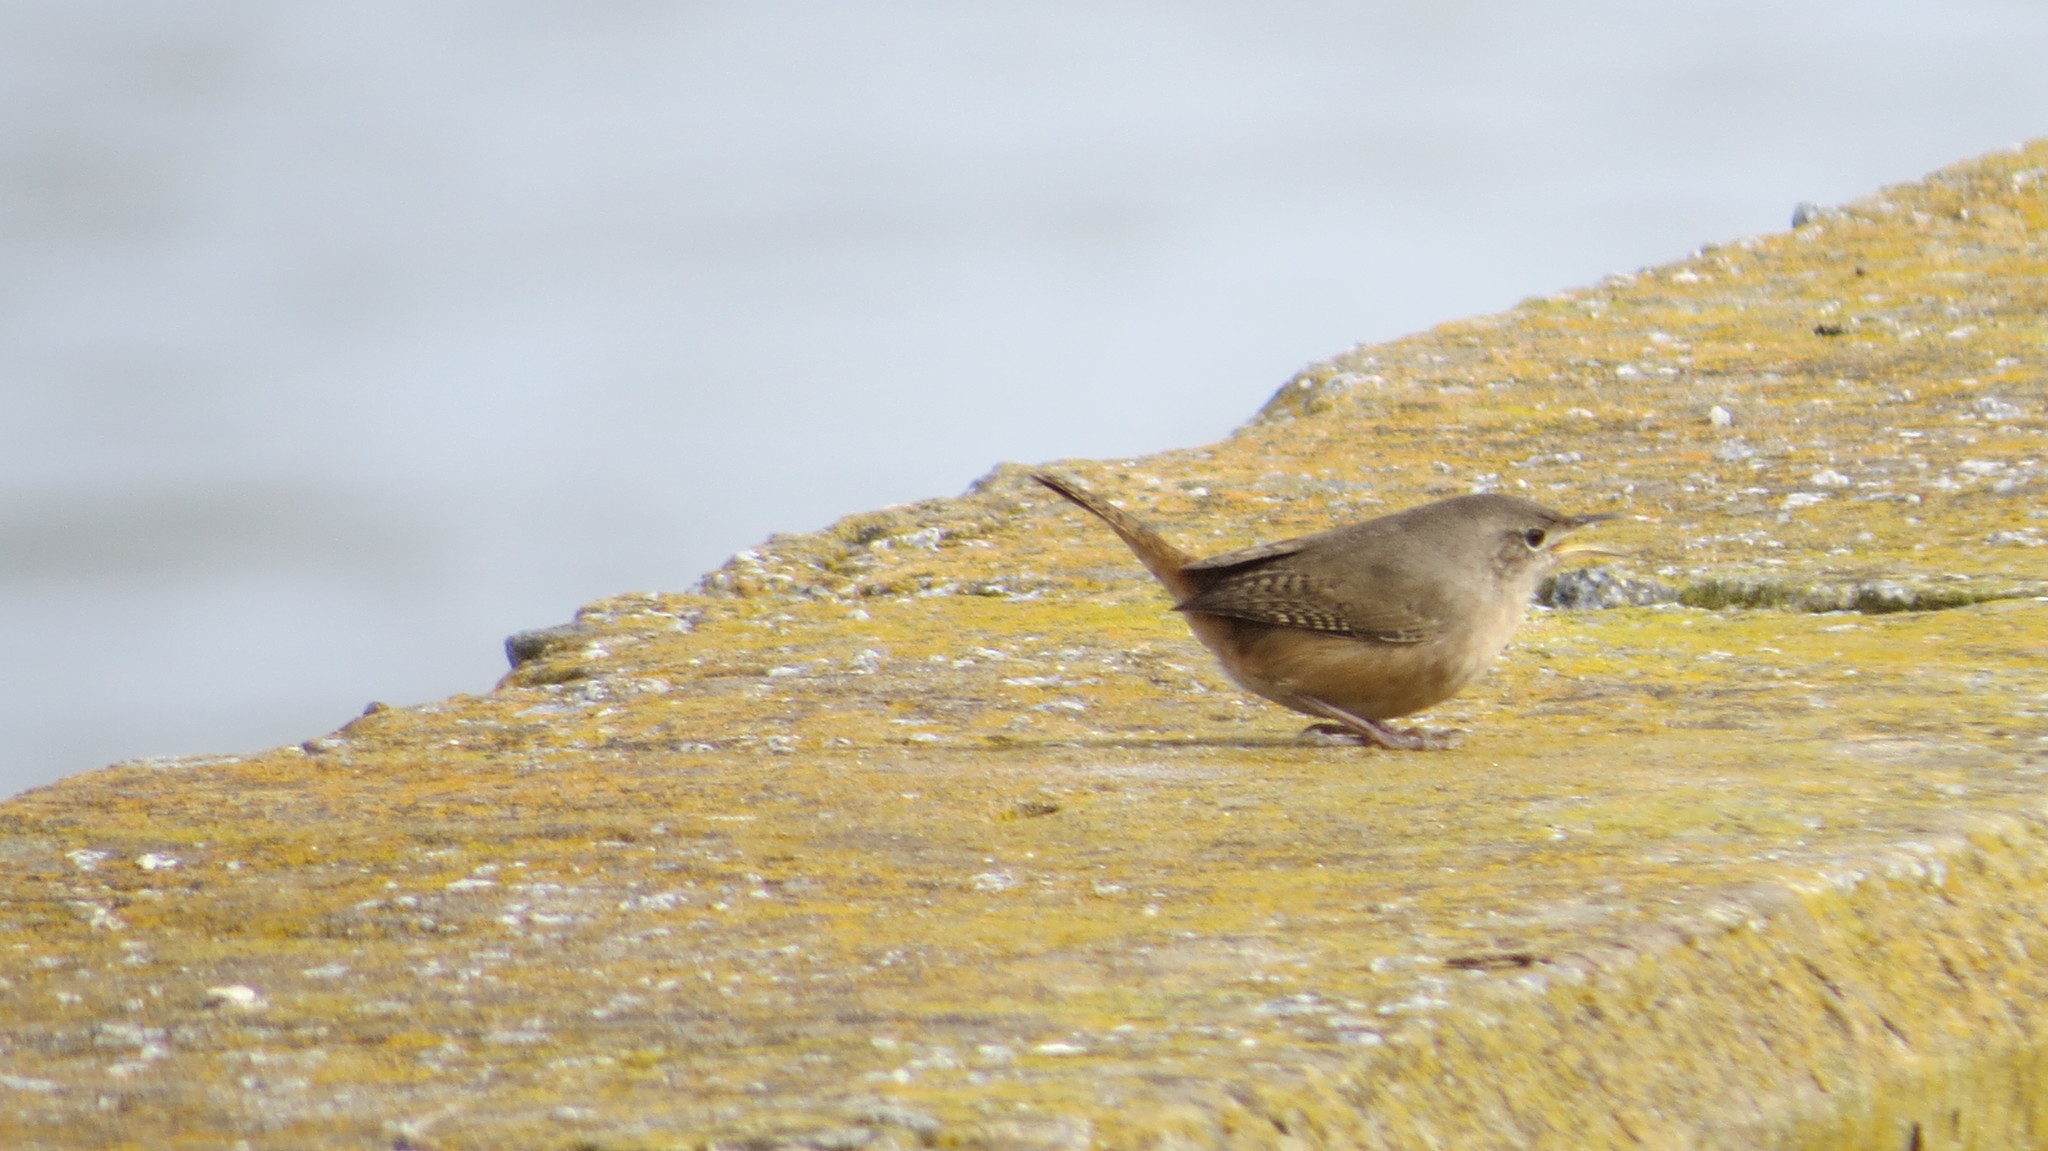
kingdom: Animalia
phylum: Chordata
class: Aves
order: Passeriformes
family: Troglodytidae
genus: Troglodytes
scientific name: Troglodytes aedon
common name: House wren
